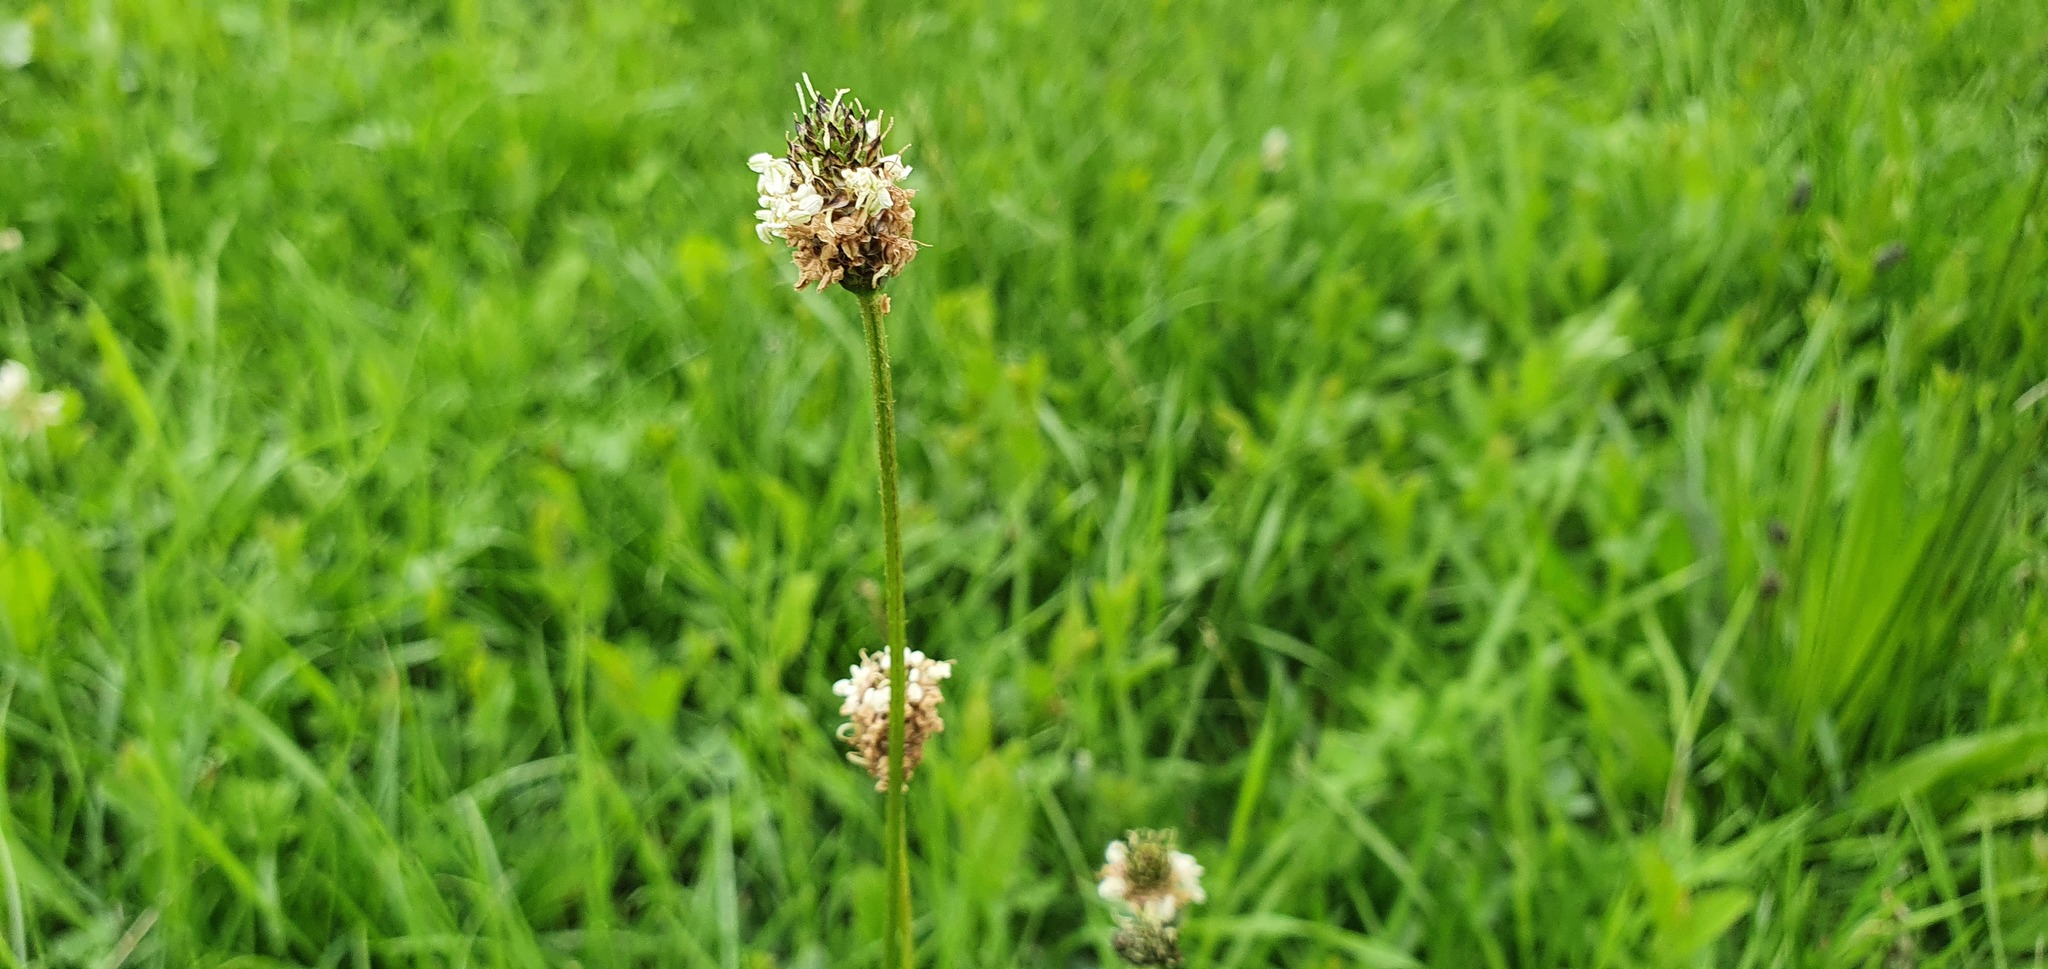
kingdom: Plantae
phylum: Tracheophyta
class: Magnoliopsida
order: Lamiales
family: Plantaginaceae
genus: Plantago
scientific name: Plantago lanceolata
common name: Ribwort plantain
